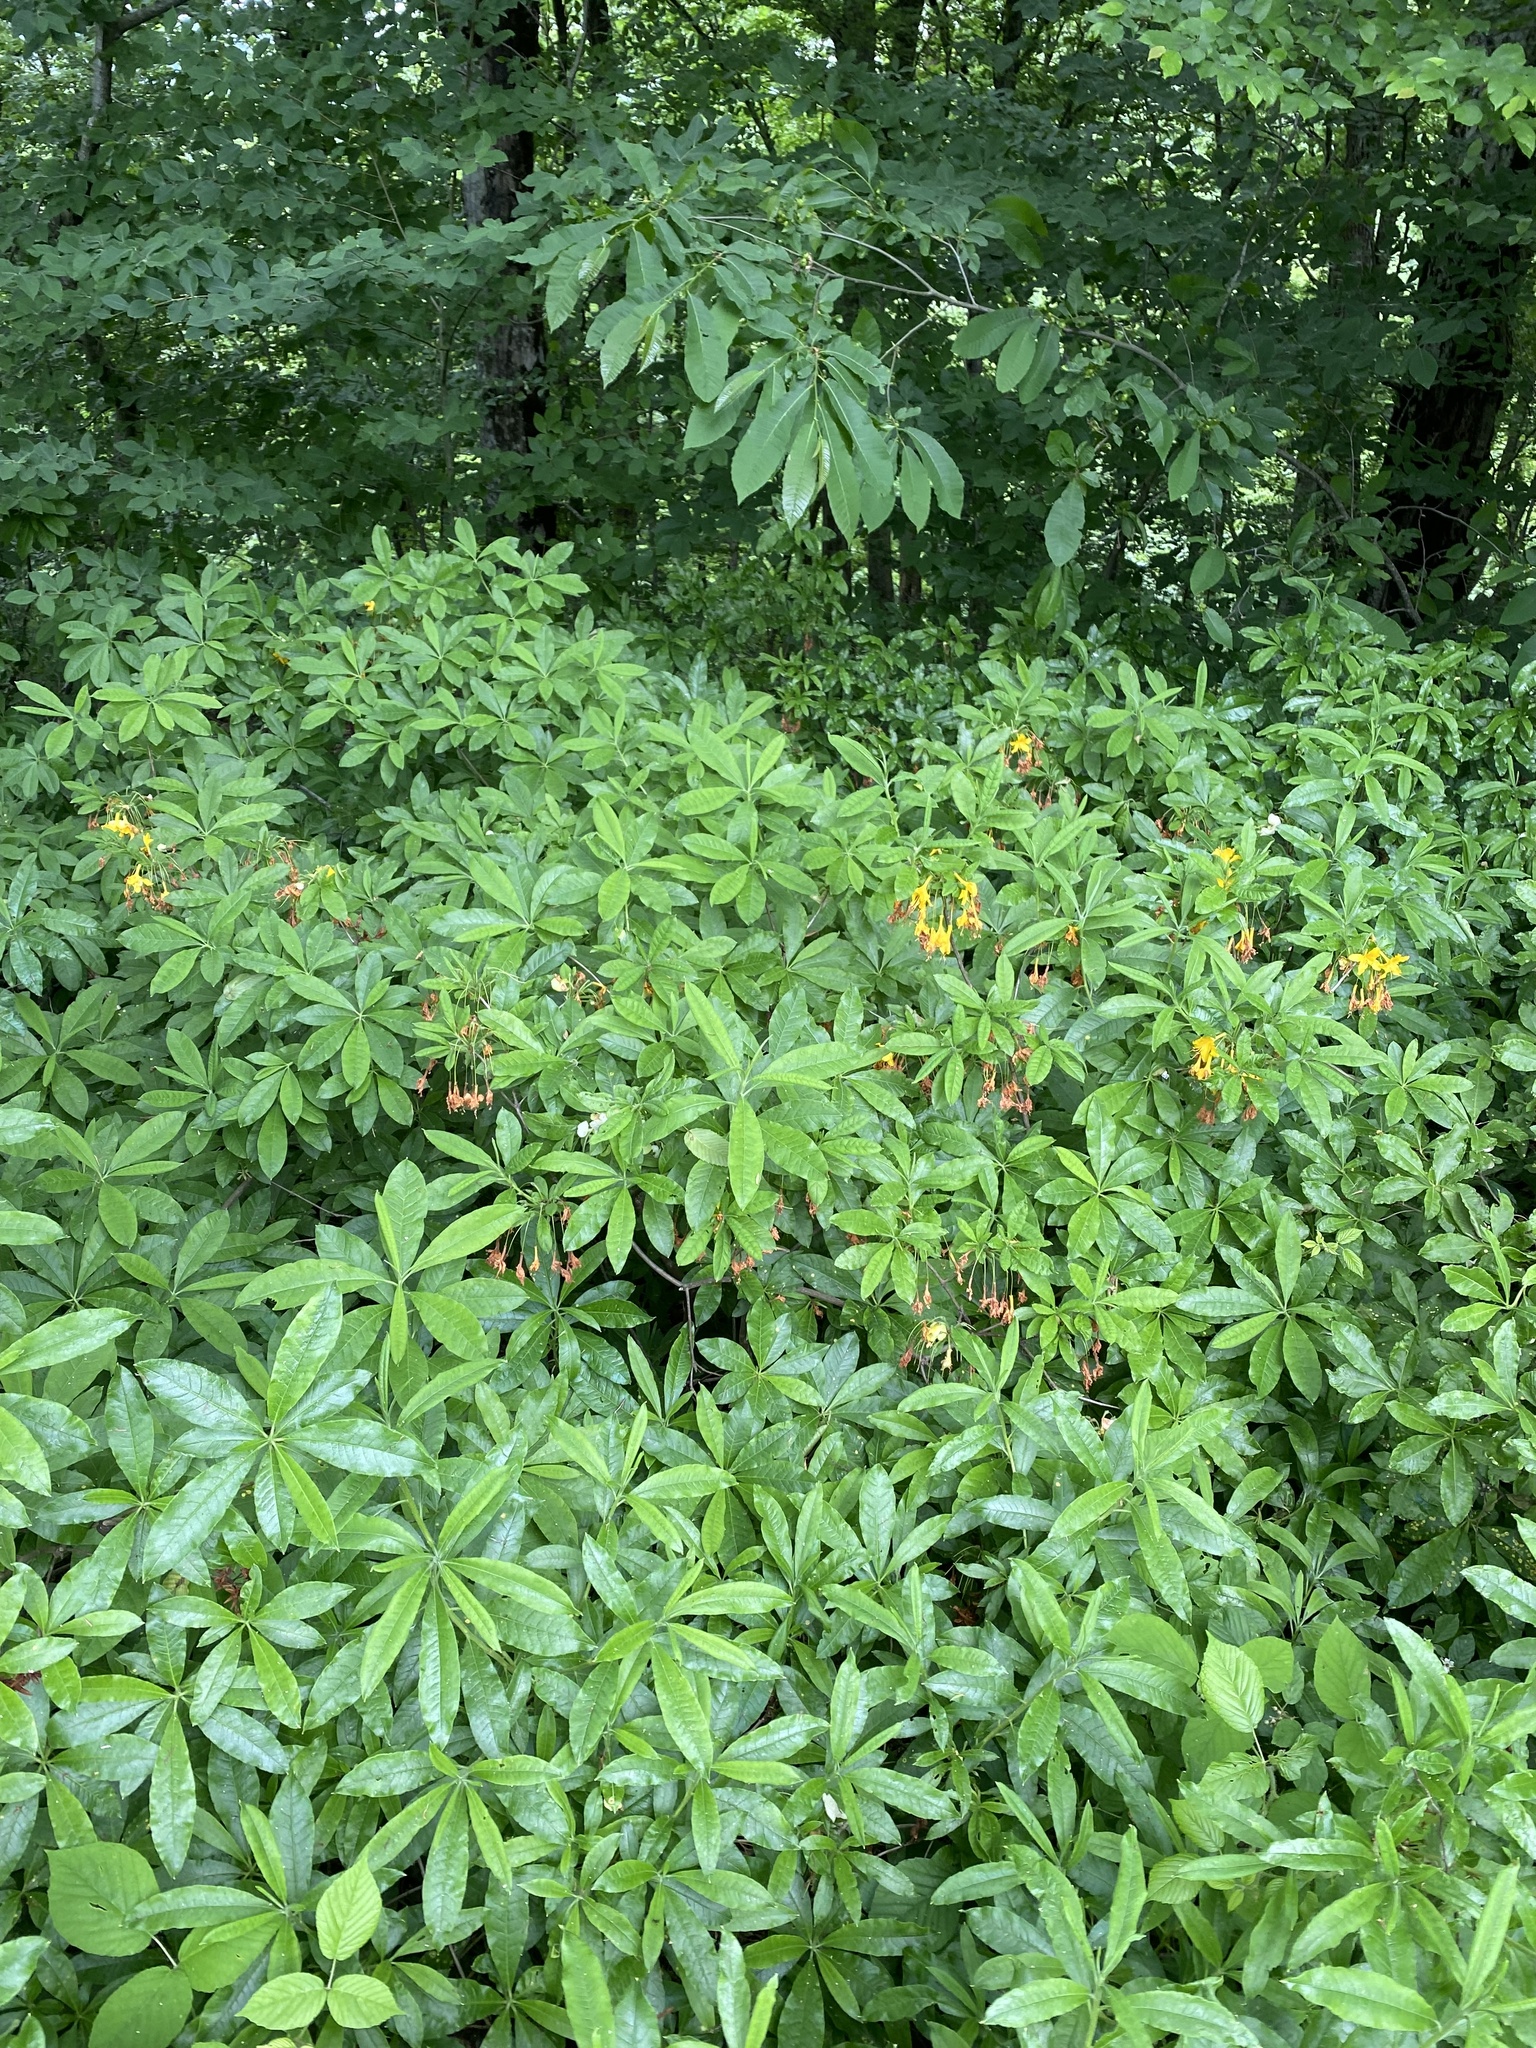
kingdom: Plantae
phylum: Tracheophyta
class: Magnoliopsida
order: Ericales
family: Ericaceae
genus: Rhododendron
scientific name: Rhododendron luteum
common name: Yellow azalea
